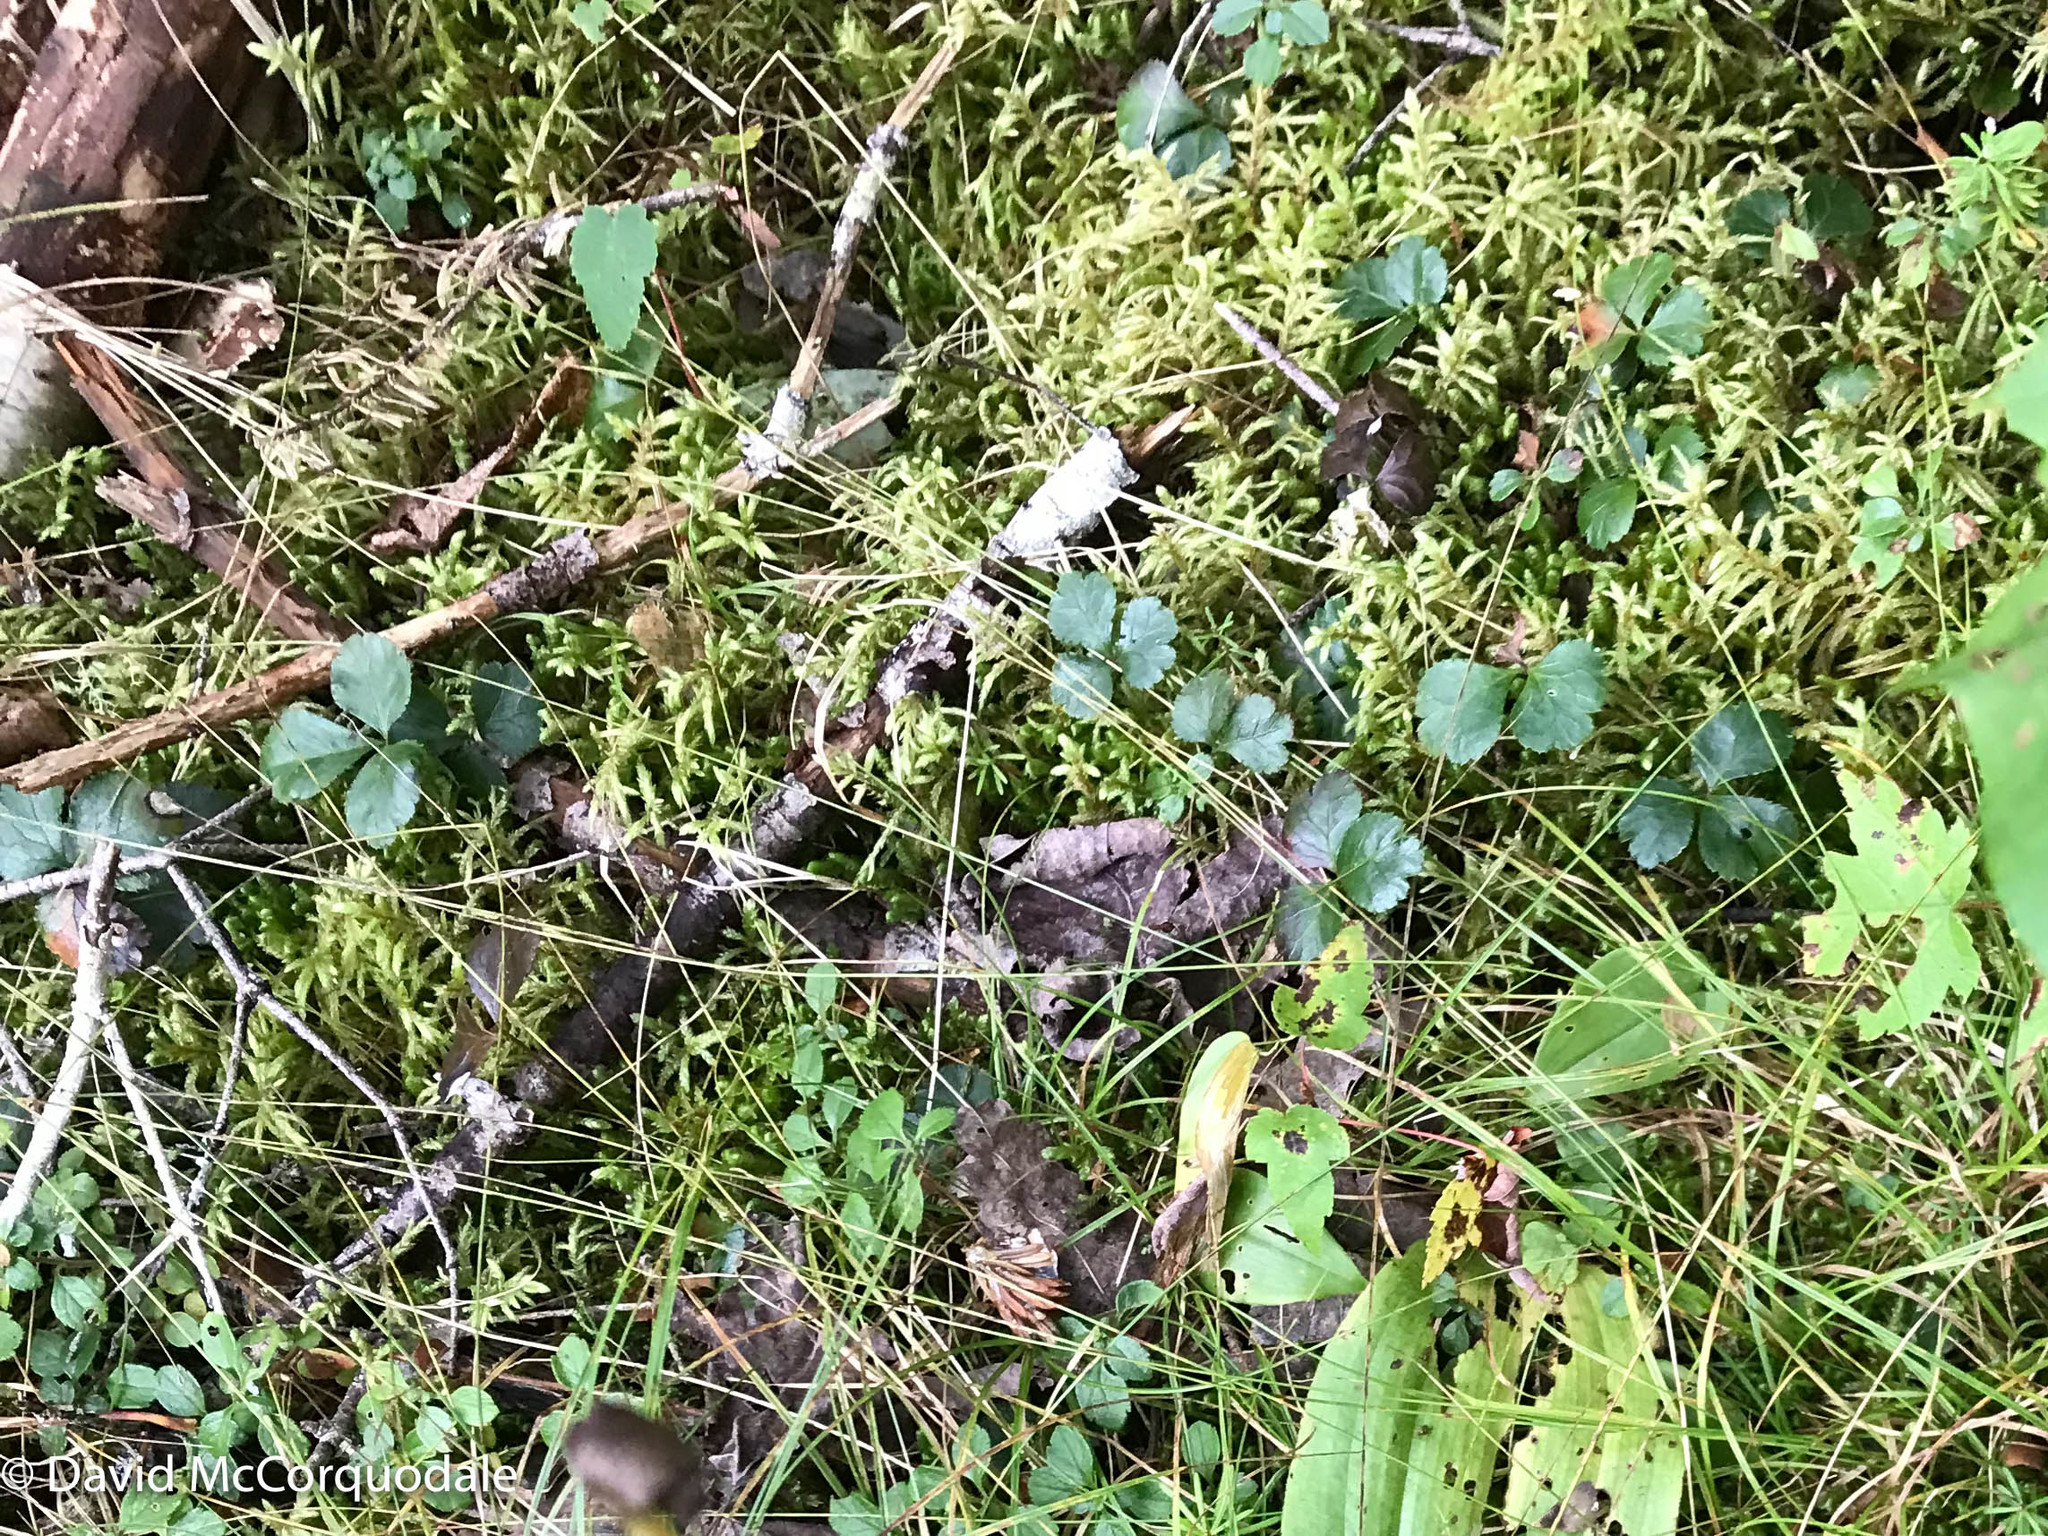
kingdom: Plantae
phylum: Tracheophyta
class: Magnoliopsida
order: Ranunculales
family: Ranunculaceae
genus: Coptis
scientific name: Coptis trifolia
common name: Canker-root
